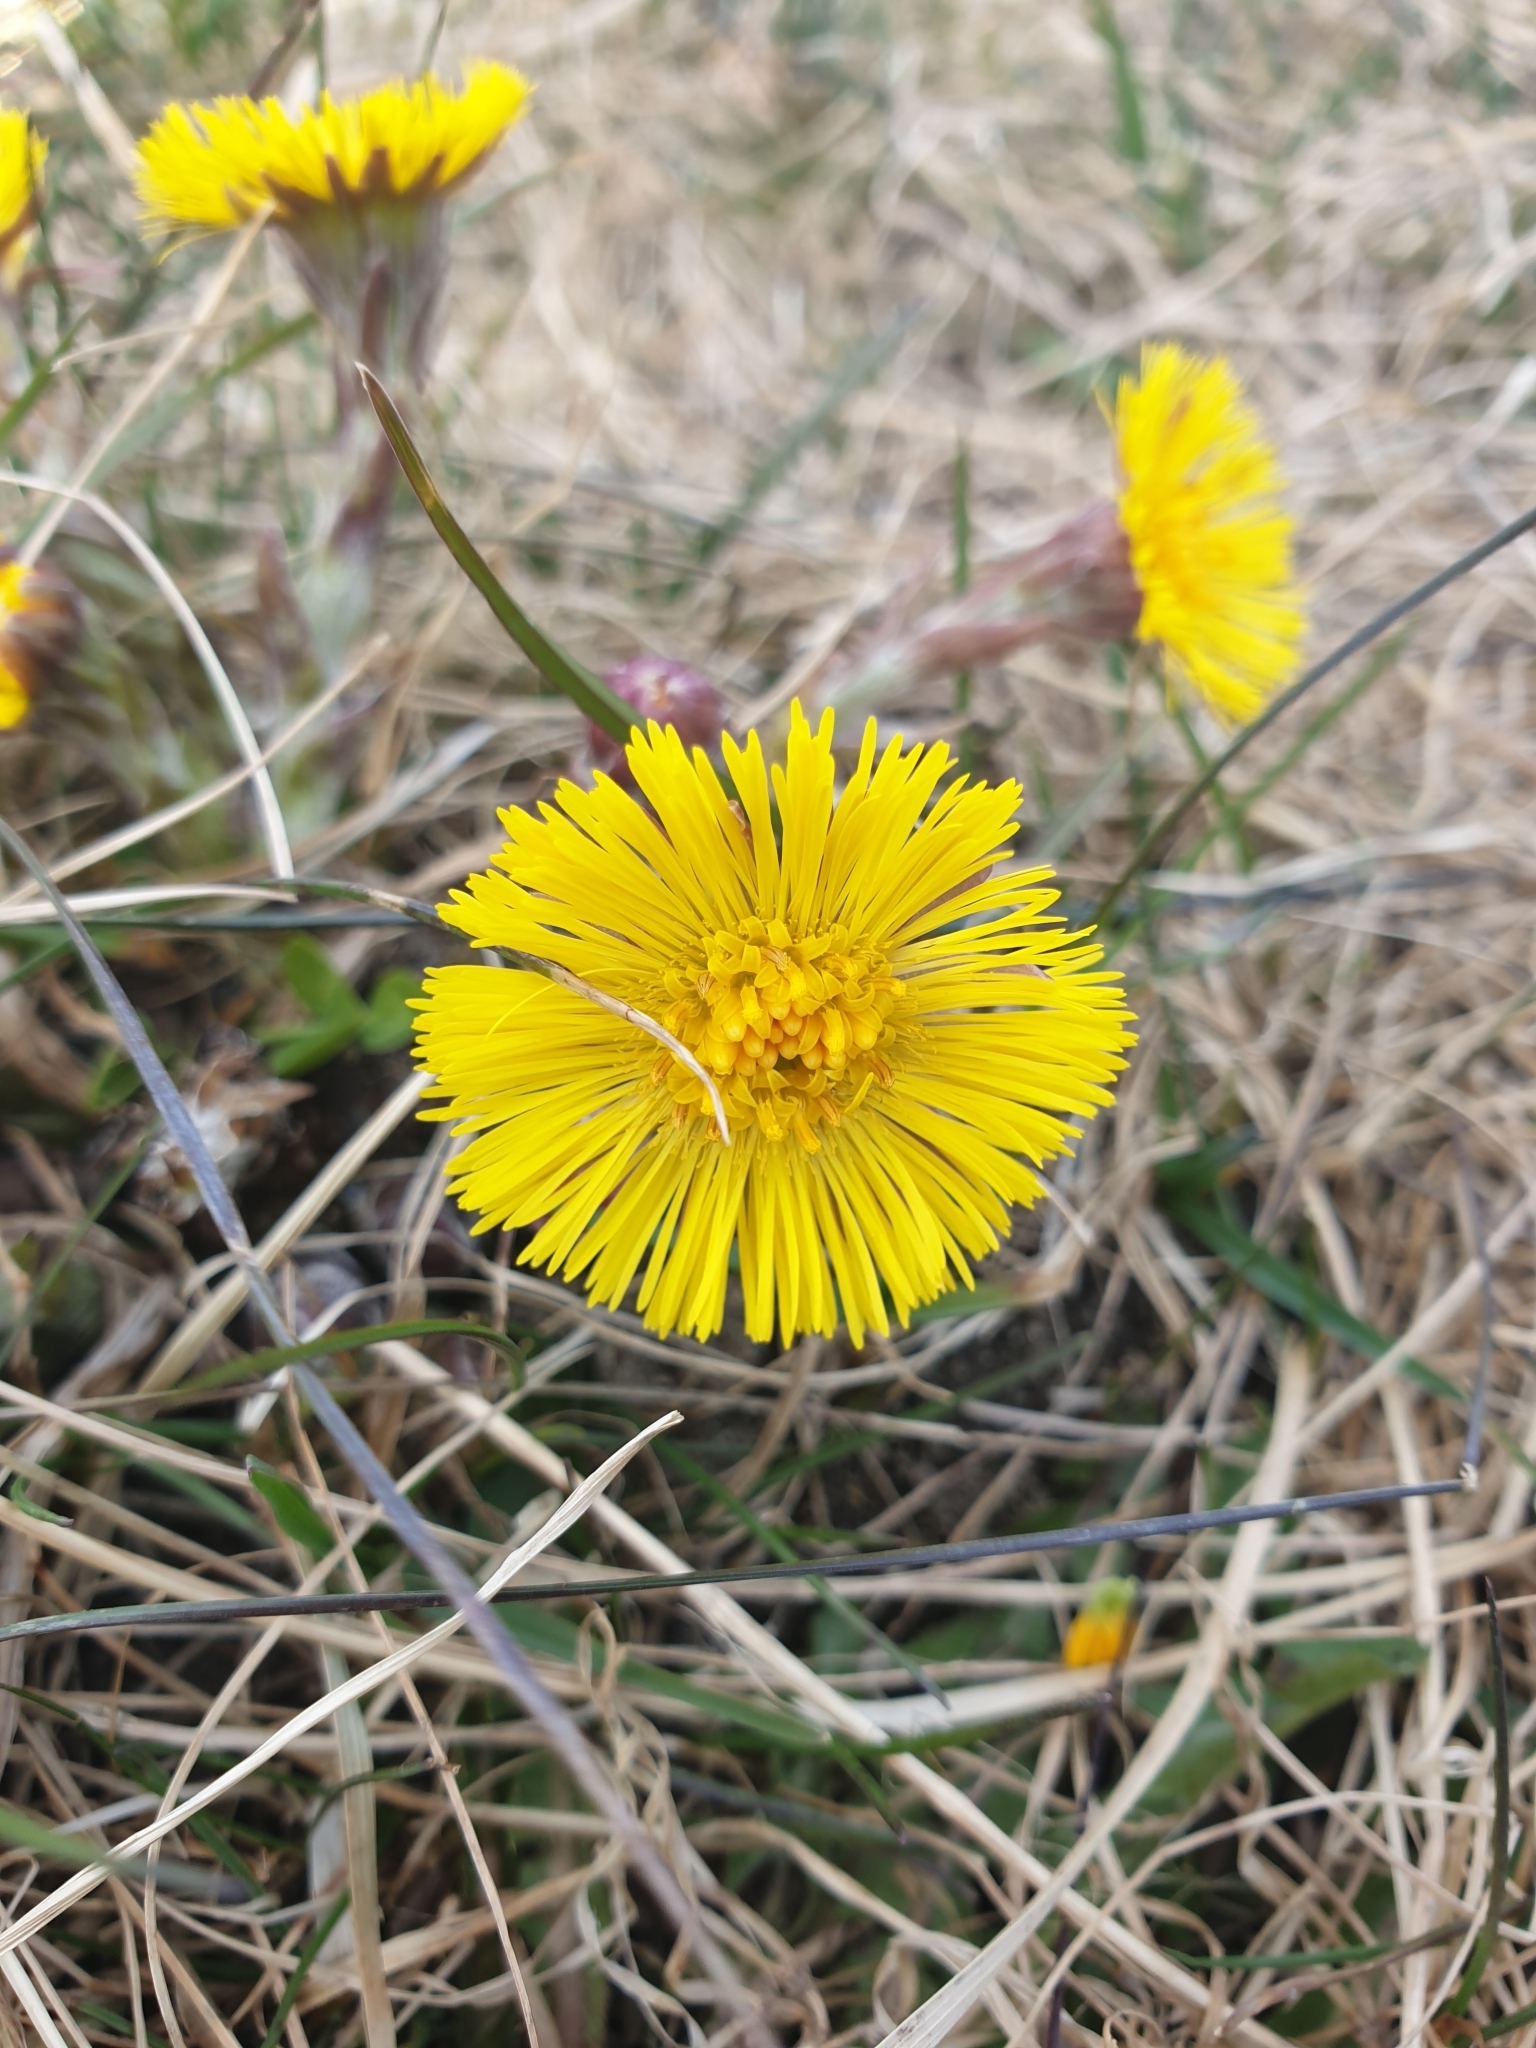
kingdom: Plantae
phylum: Tracheophyta
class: Magnoliopsida
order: Asterales
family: Asteraceae
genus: Tussilago
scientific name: Tussilago farfara
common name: Coltsfoot
